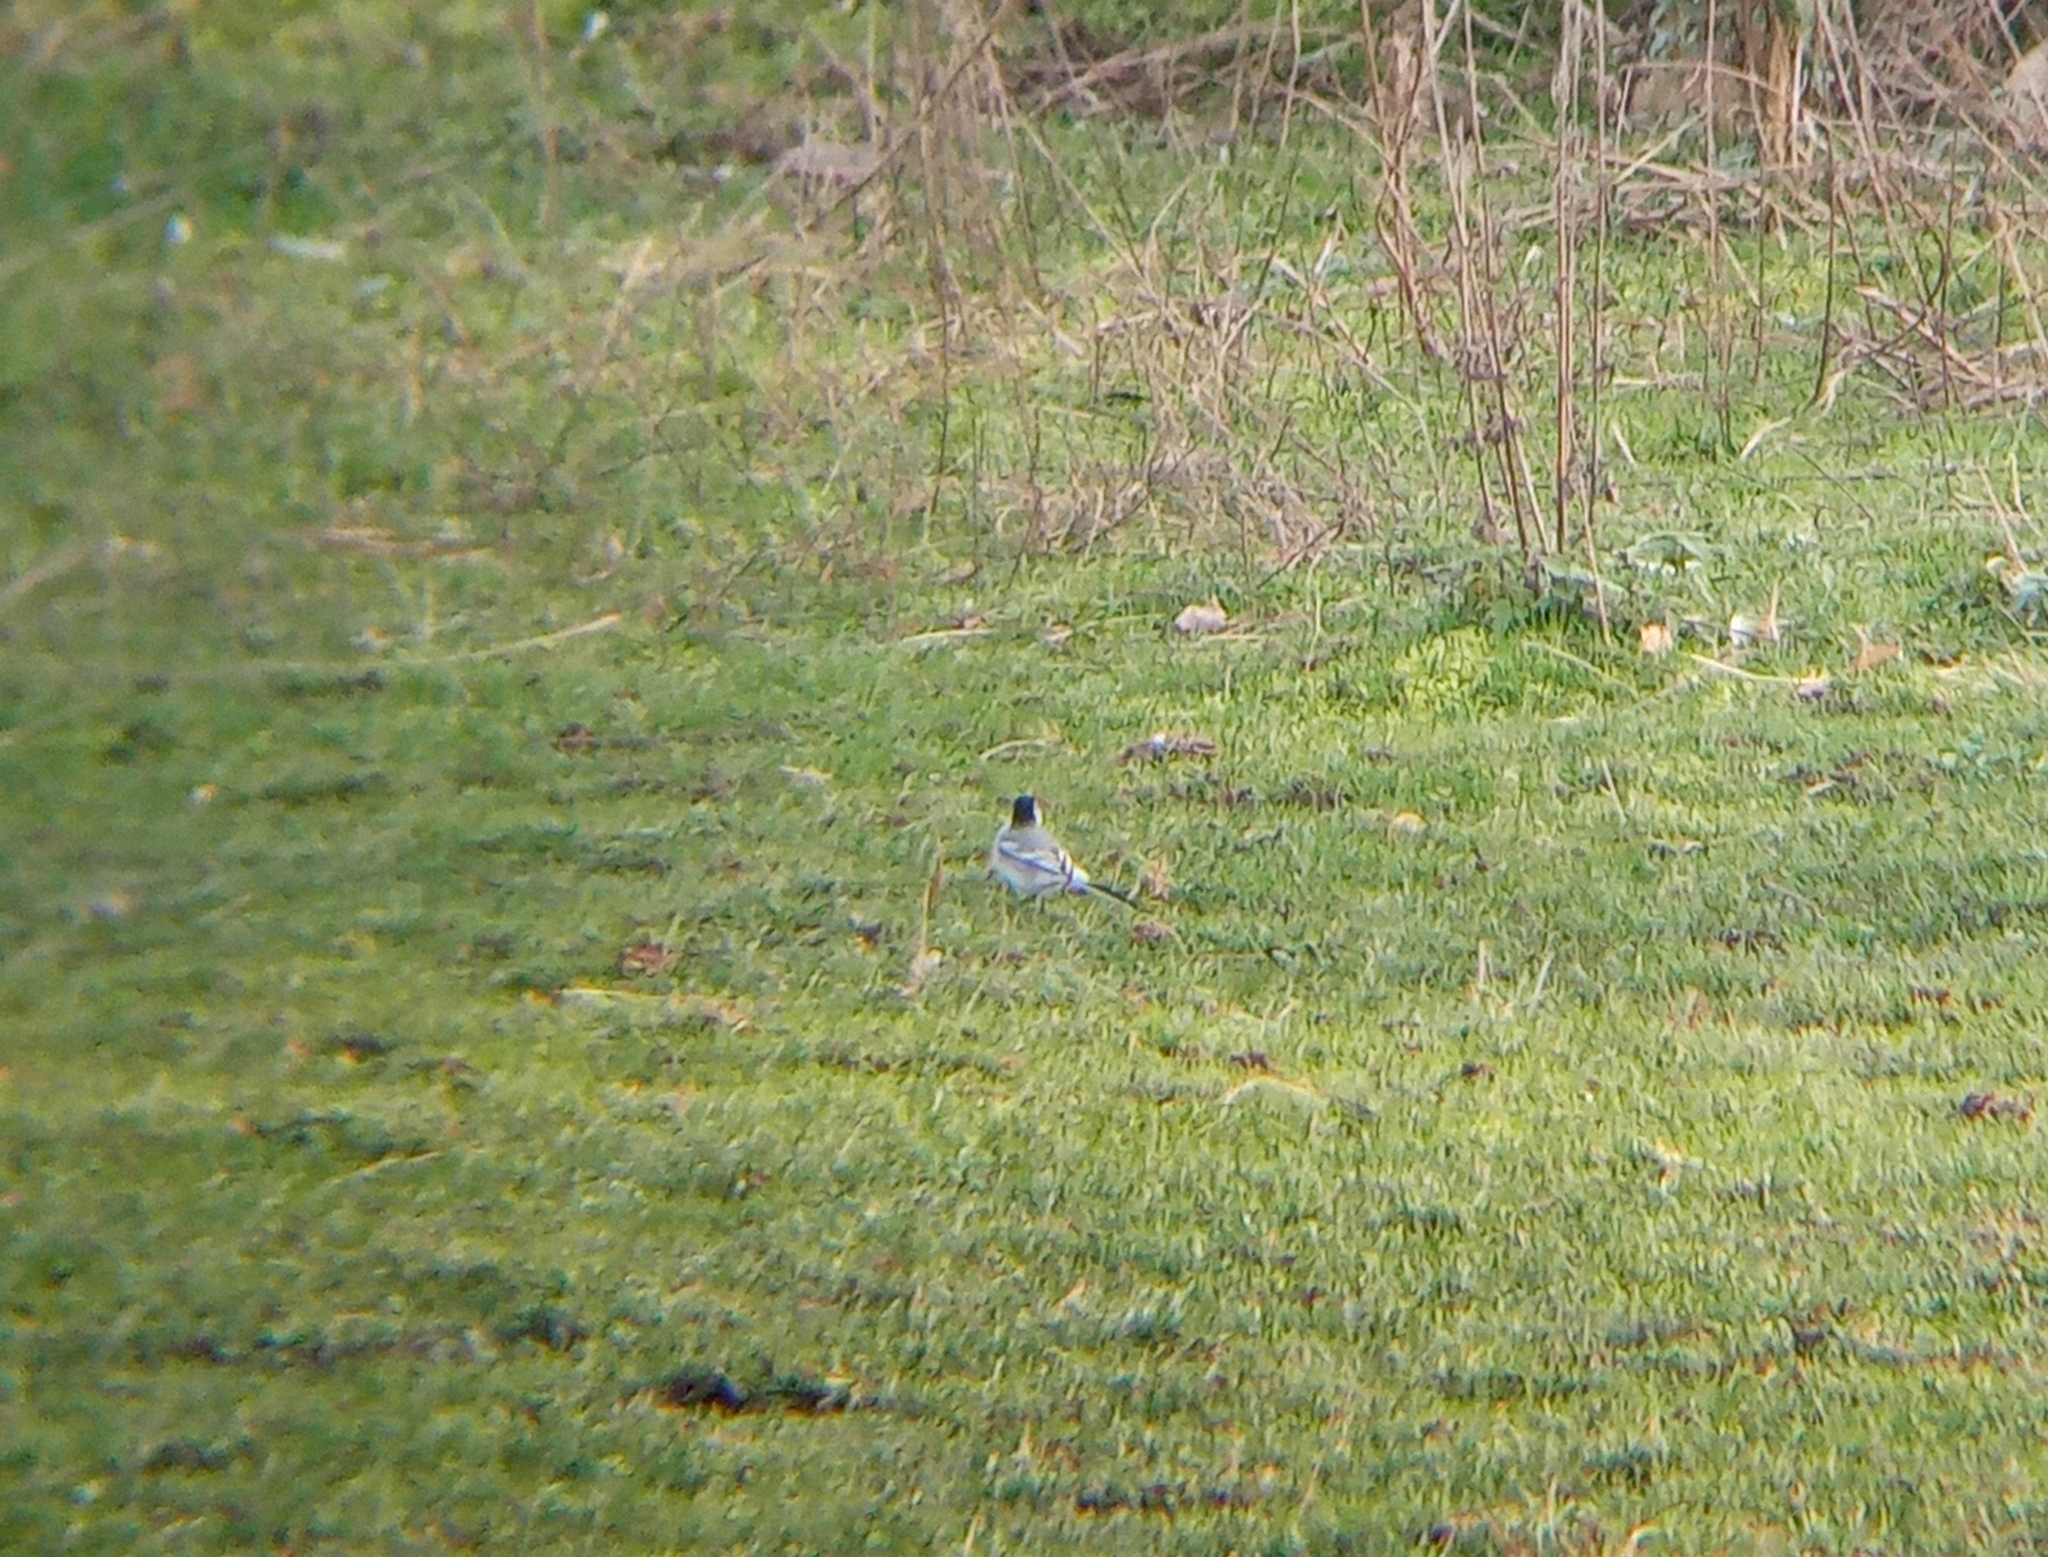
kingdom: Animalia
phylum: Chordata
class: Aves
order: Passeriformes
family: Motacillidae
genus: Motacilla
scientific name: Motacilla alba
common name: White wagtail
